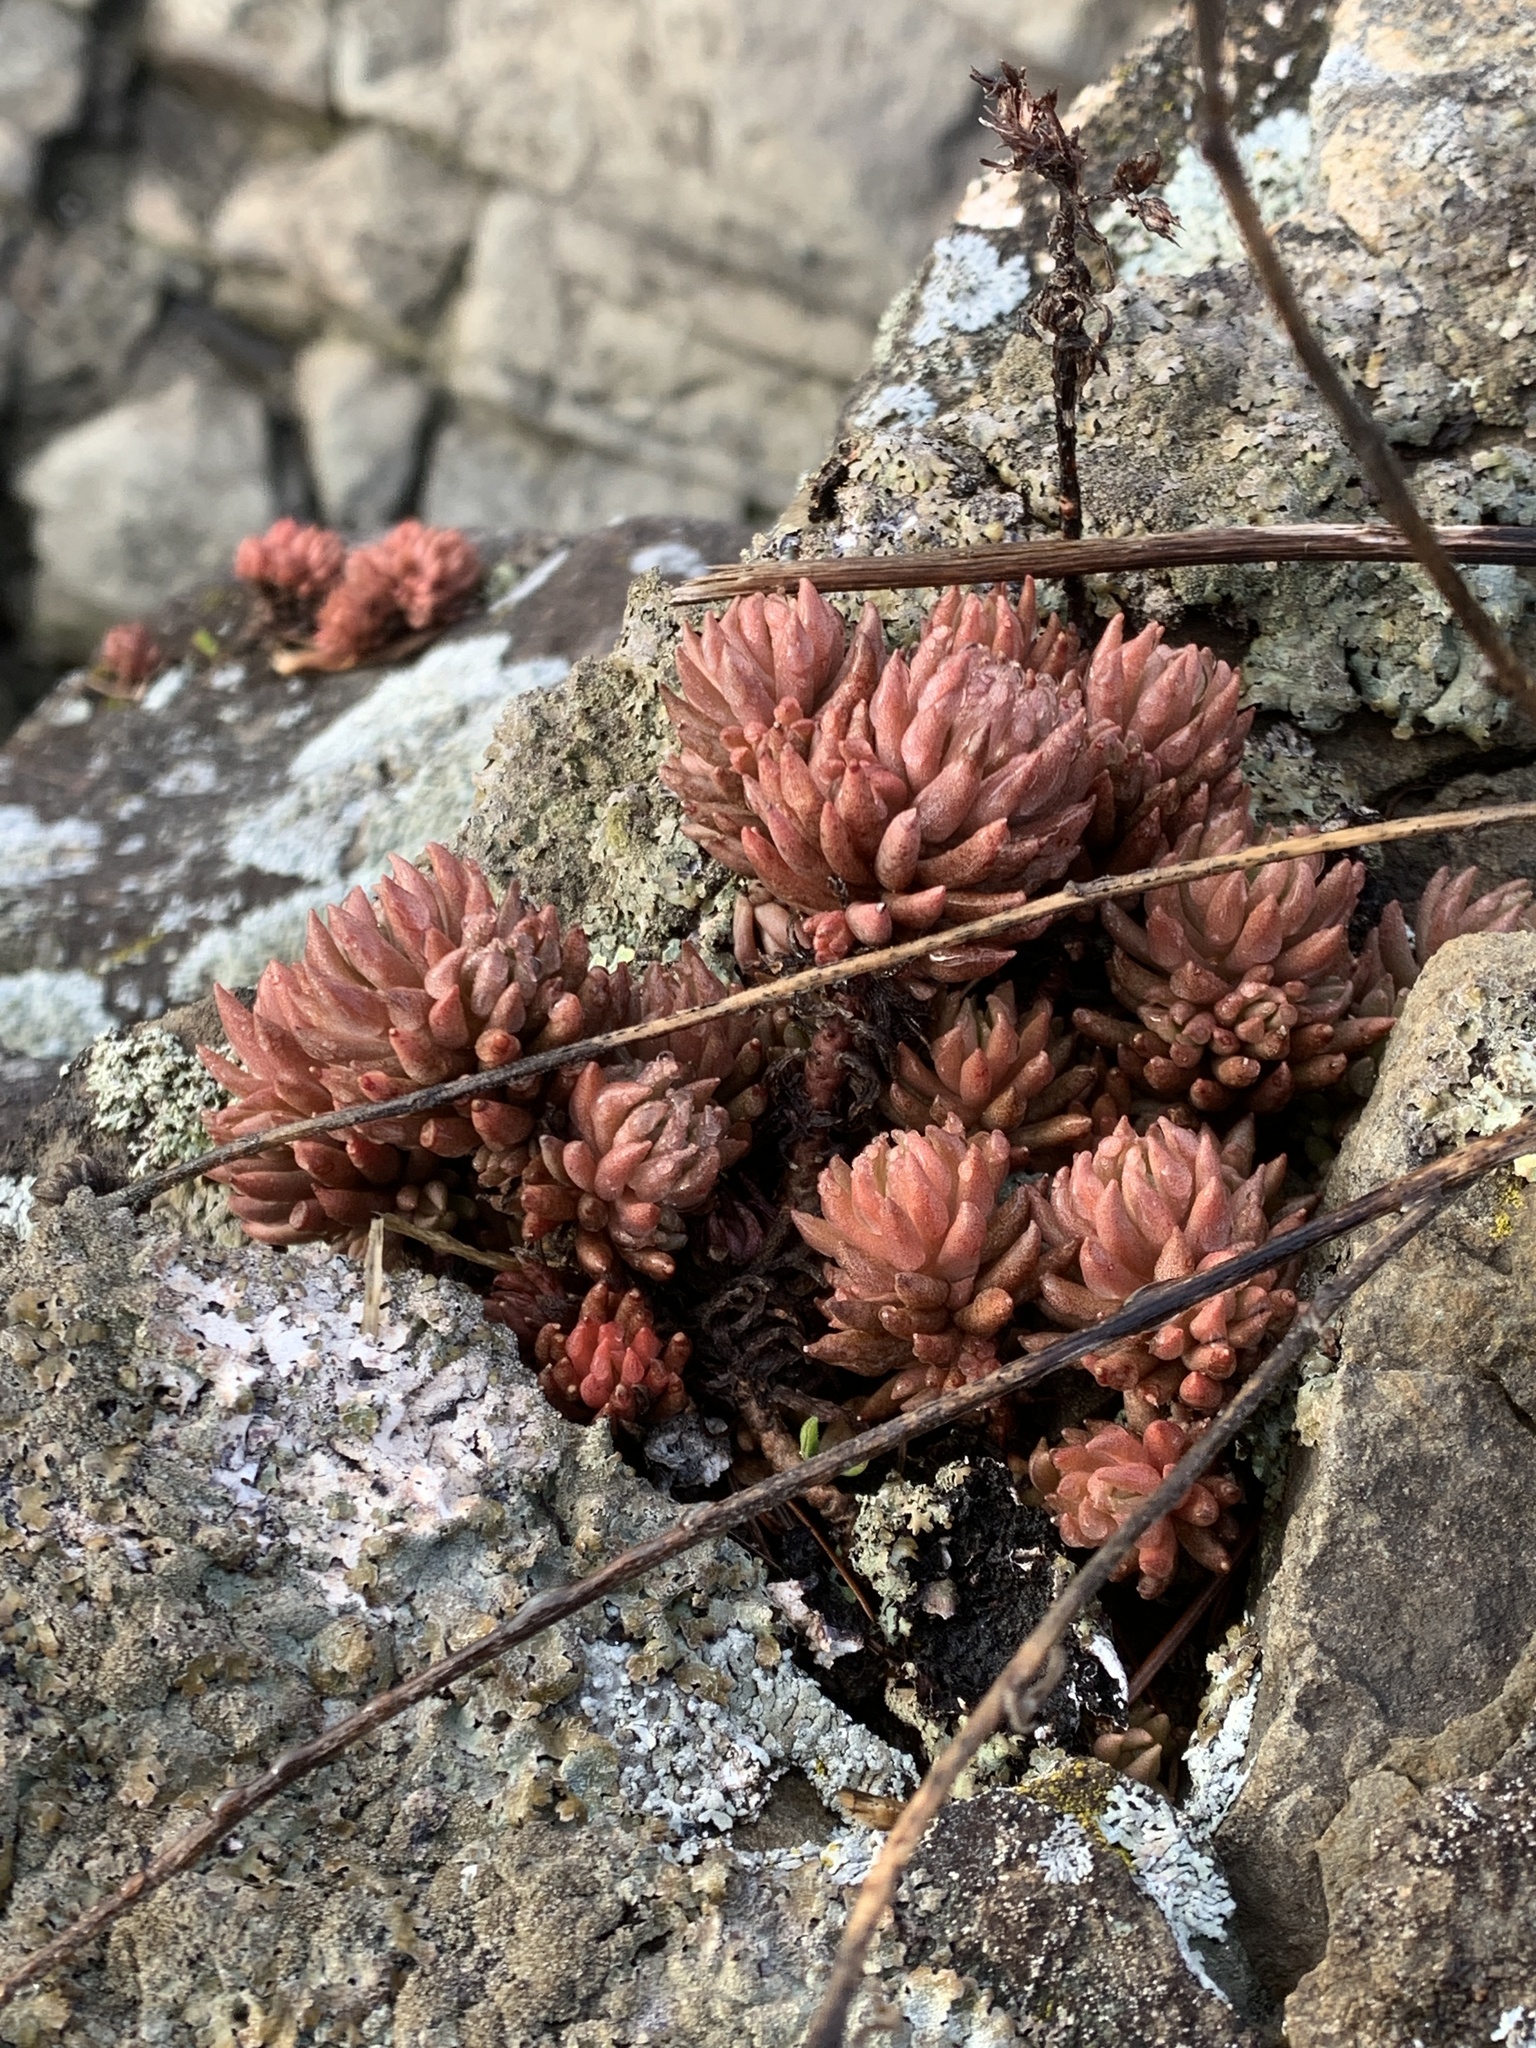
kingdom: Plantae
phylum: Tracheophyta
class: Magnoliopsida
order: Saxifragales
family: Crassulaceae
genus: Sedum
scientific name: Sedum lanceolatum
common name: Common stonecrop
